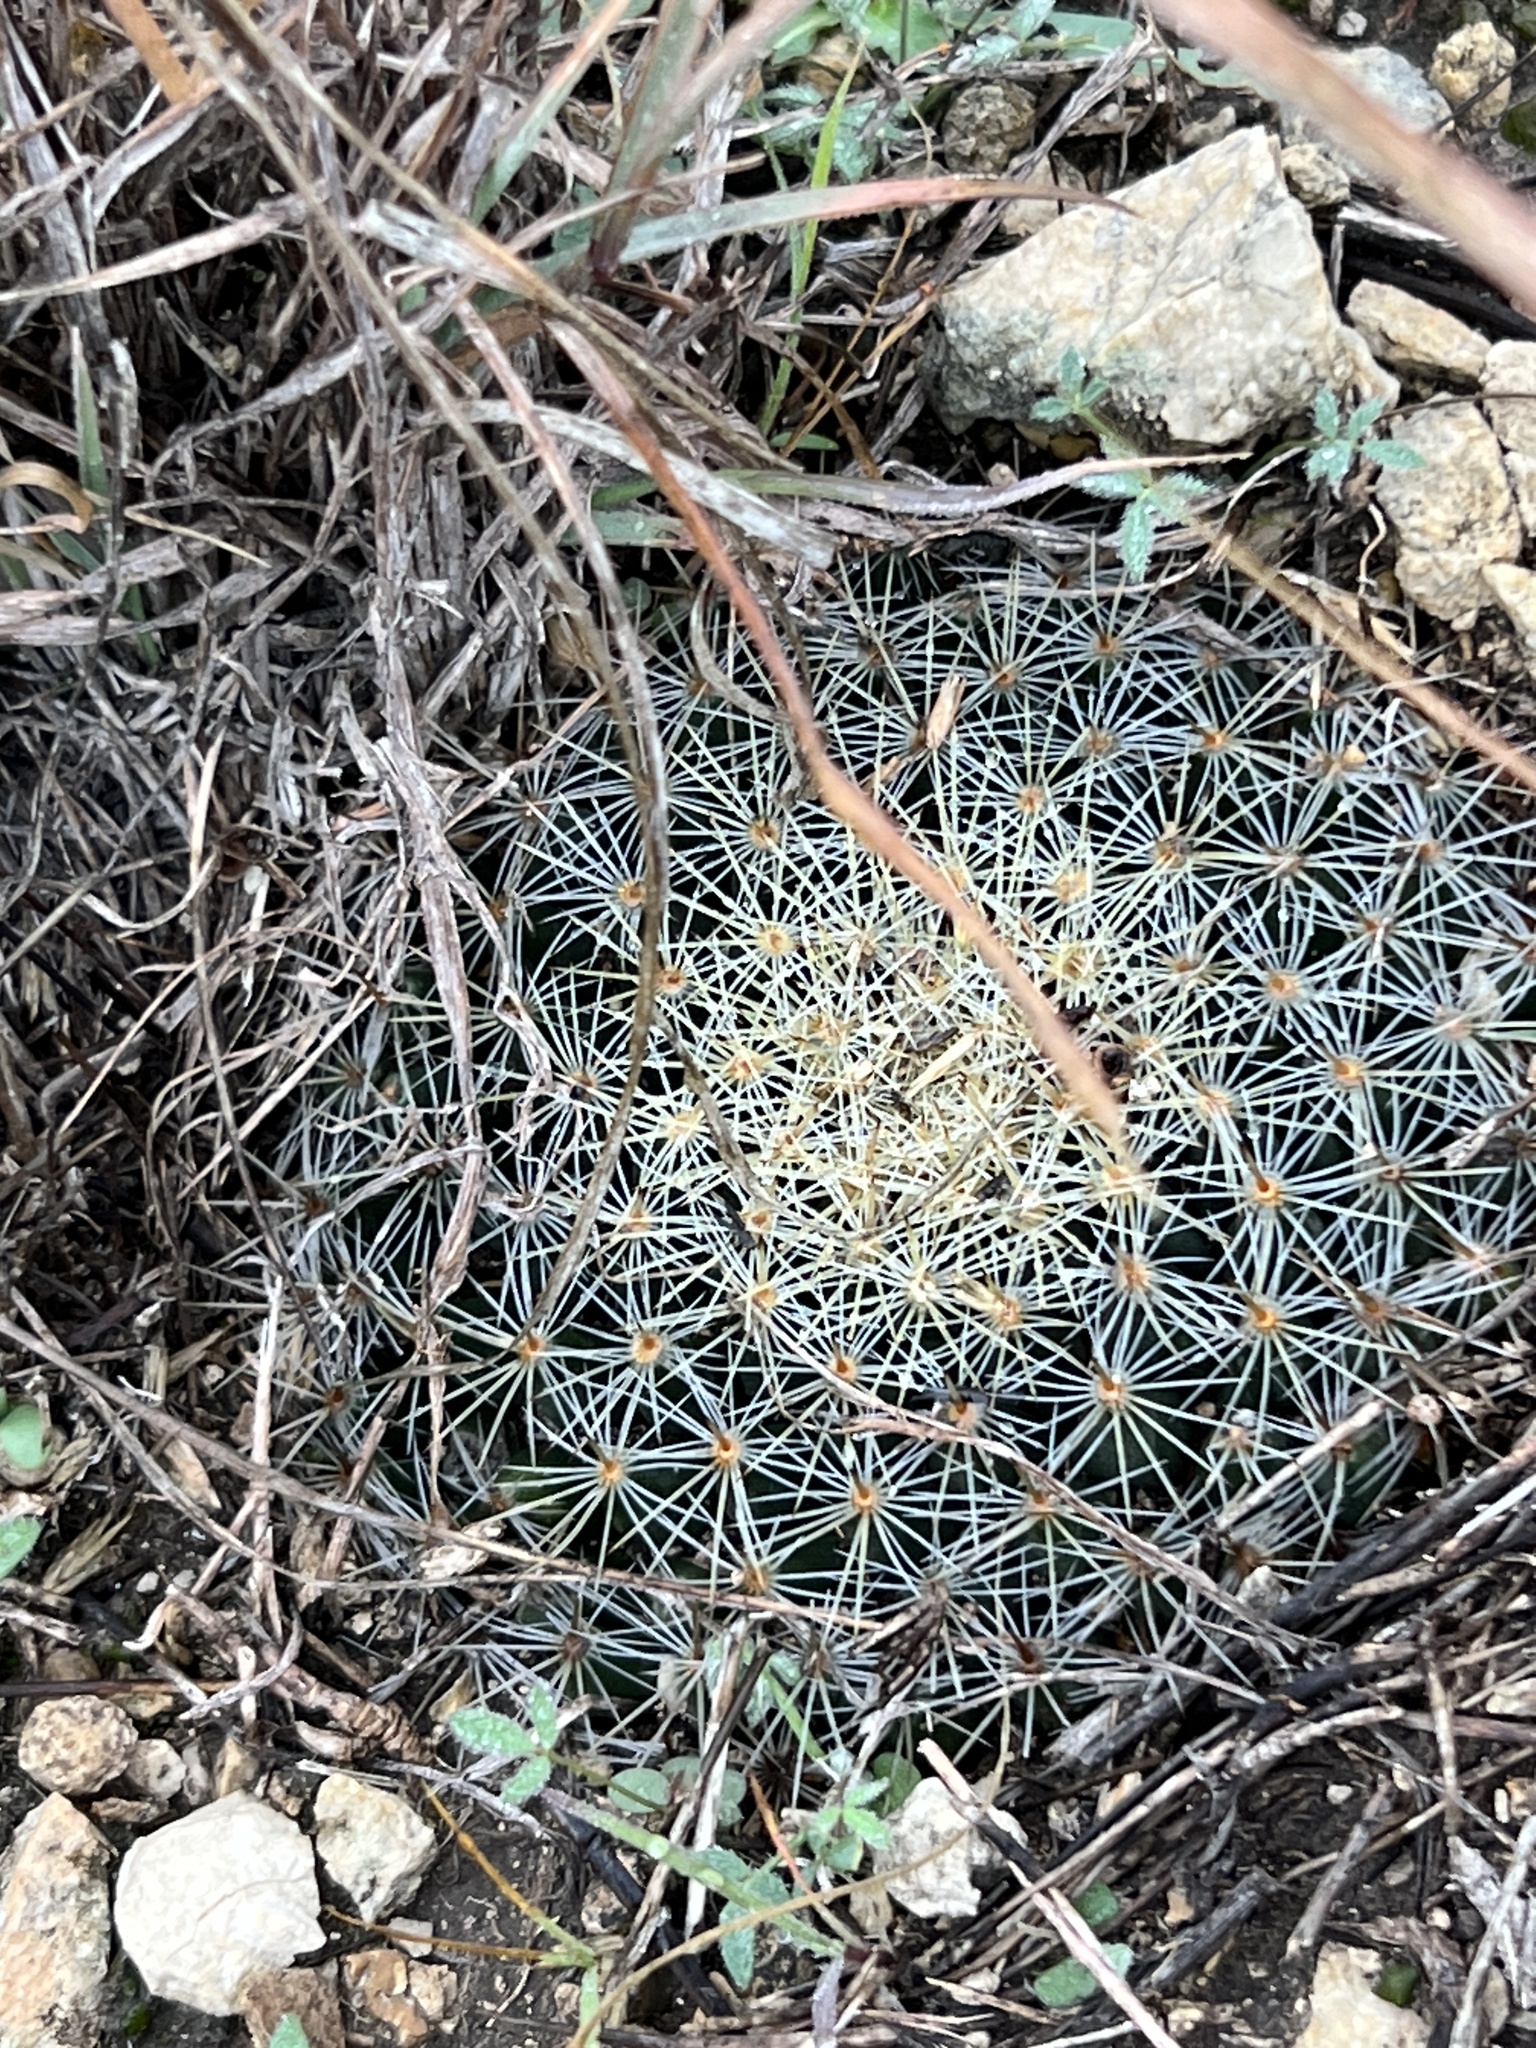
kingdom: Plantae
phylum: Tracheophyta
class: Magnoliopsida
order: Caryophyllales
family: Cactaceae
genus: Mammillaria
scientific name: Mammillaria heyderi
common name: Little nipple cactus
